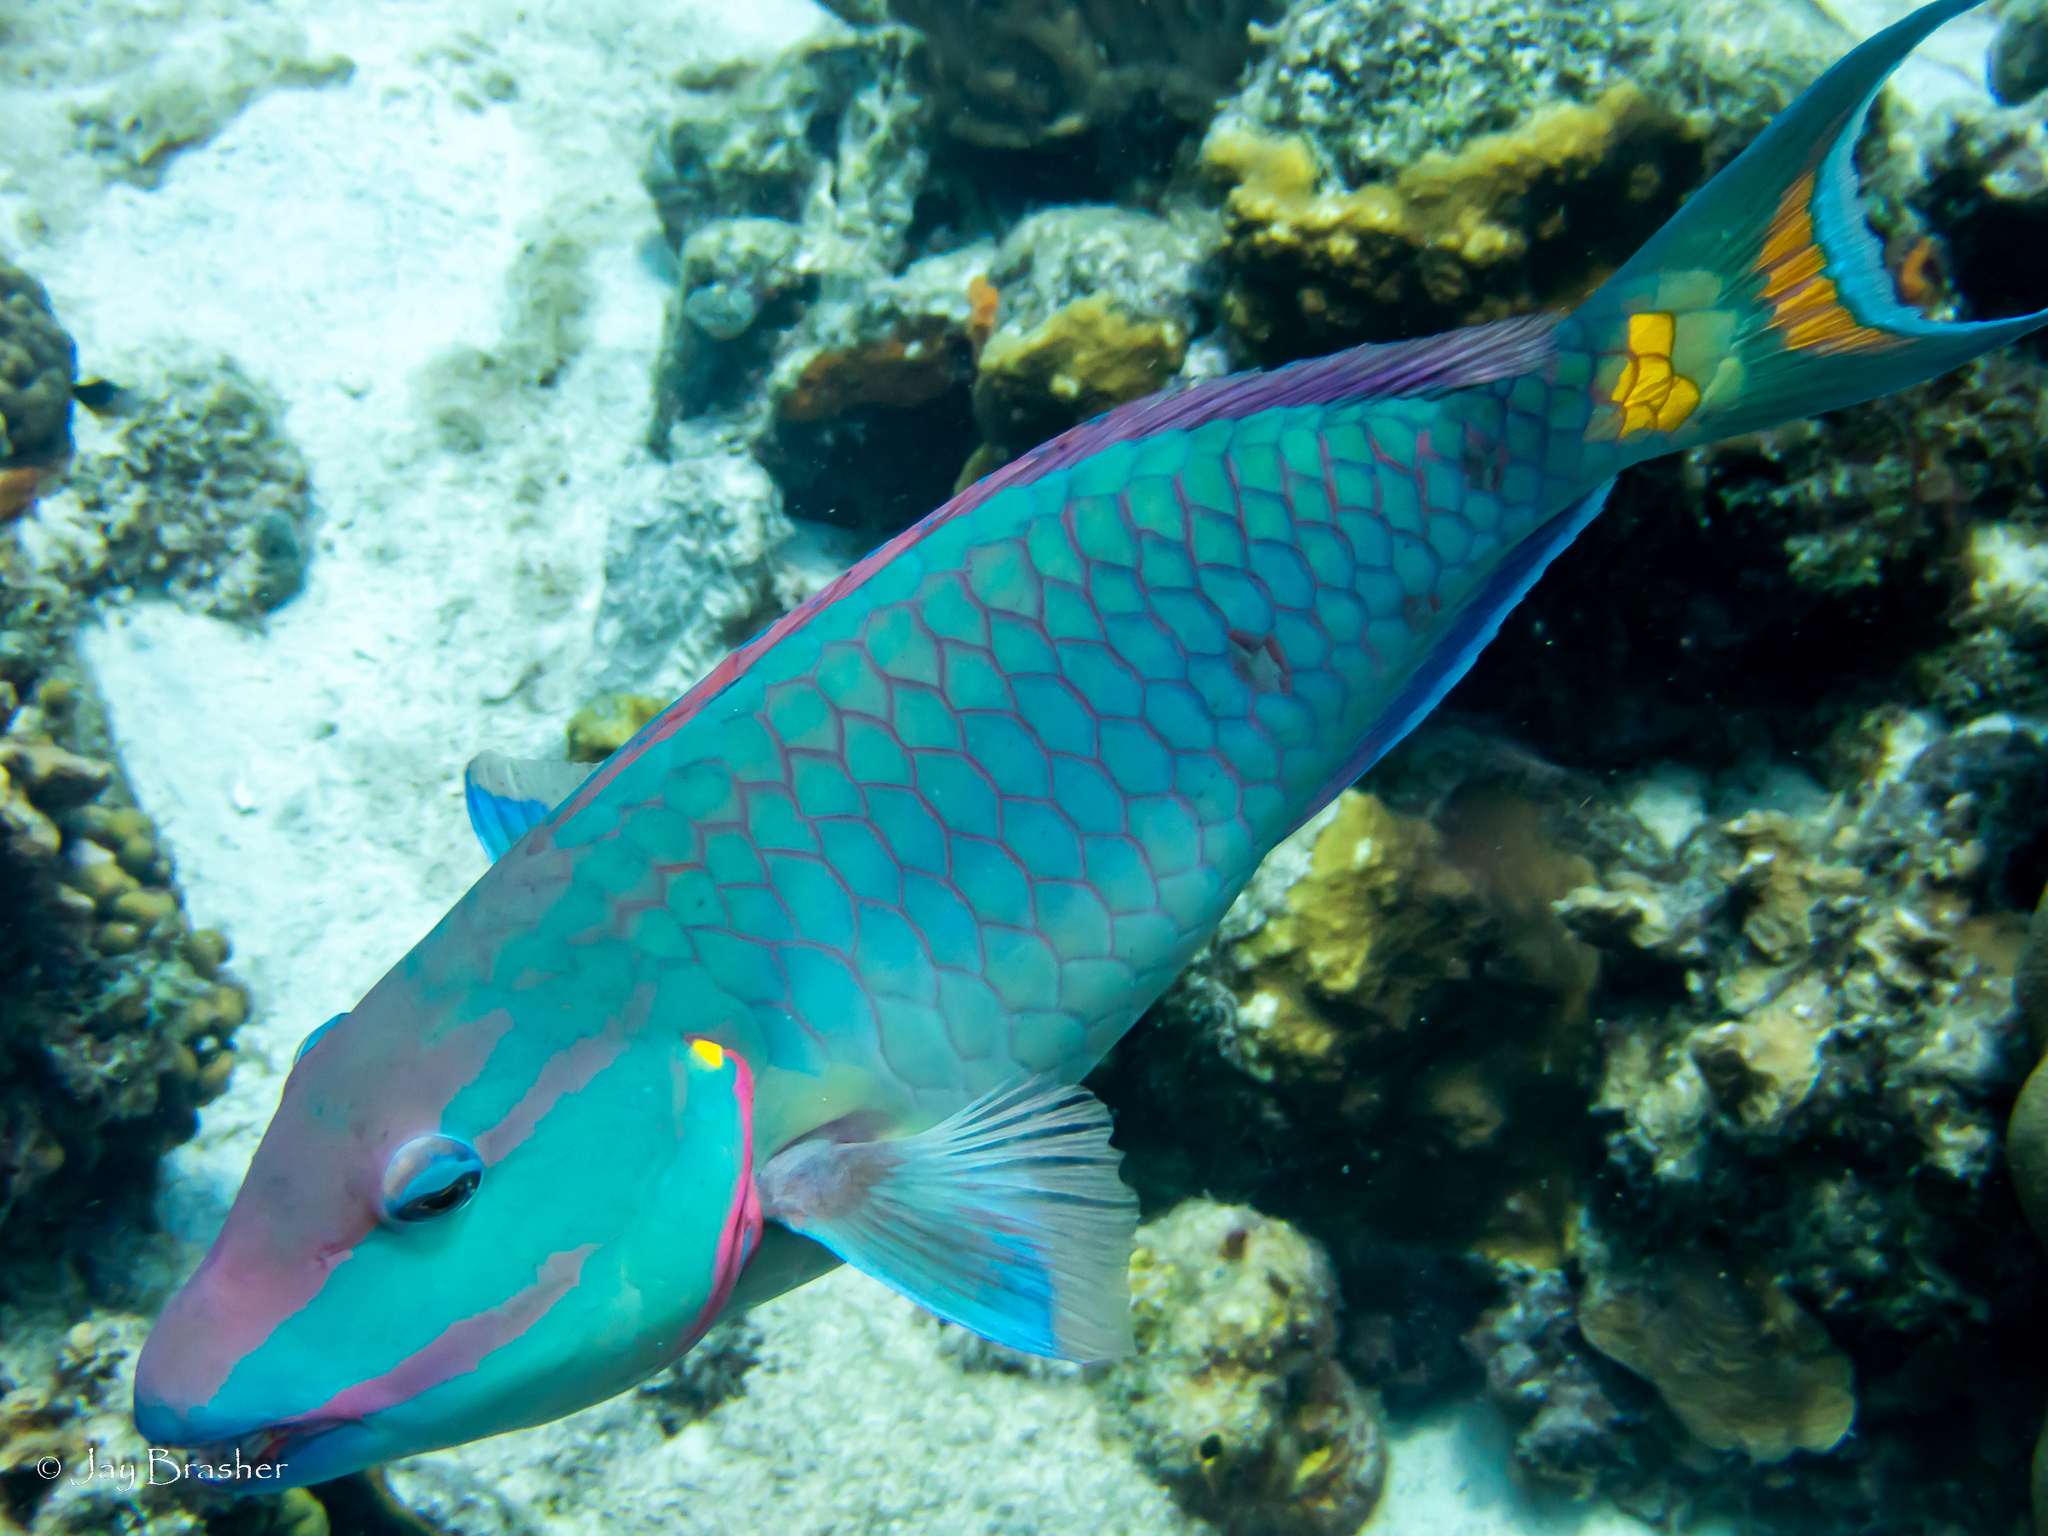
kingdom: Animalia
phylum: Chordata
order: Perciformes
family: Scaridae
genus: Sparisoma
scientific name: Sparisoma viride
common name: Stoplight parrotfish
